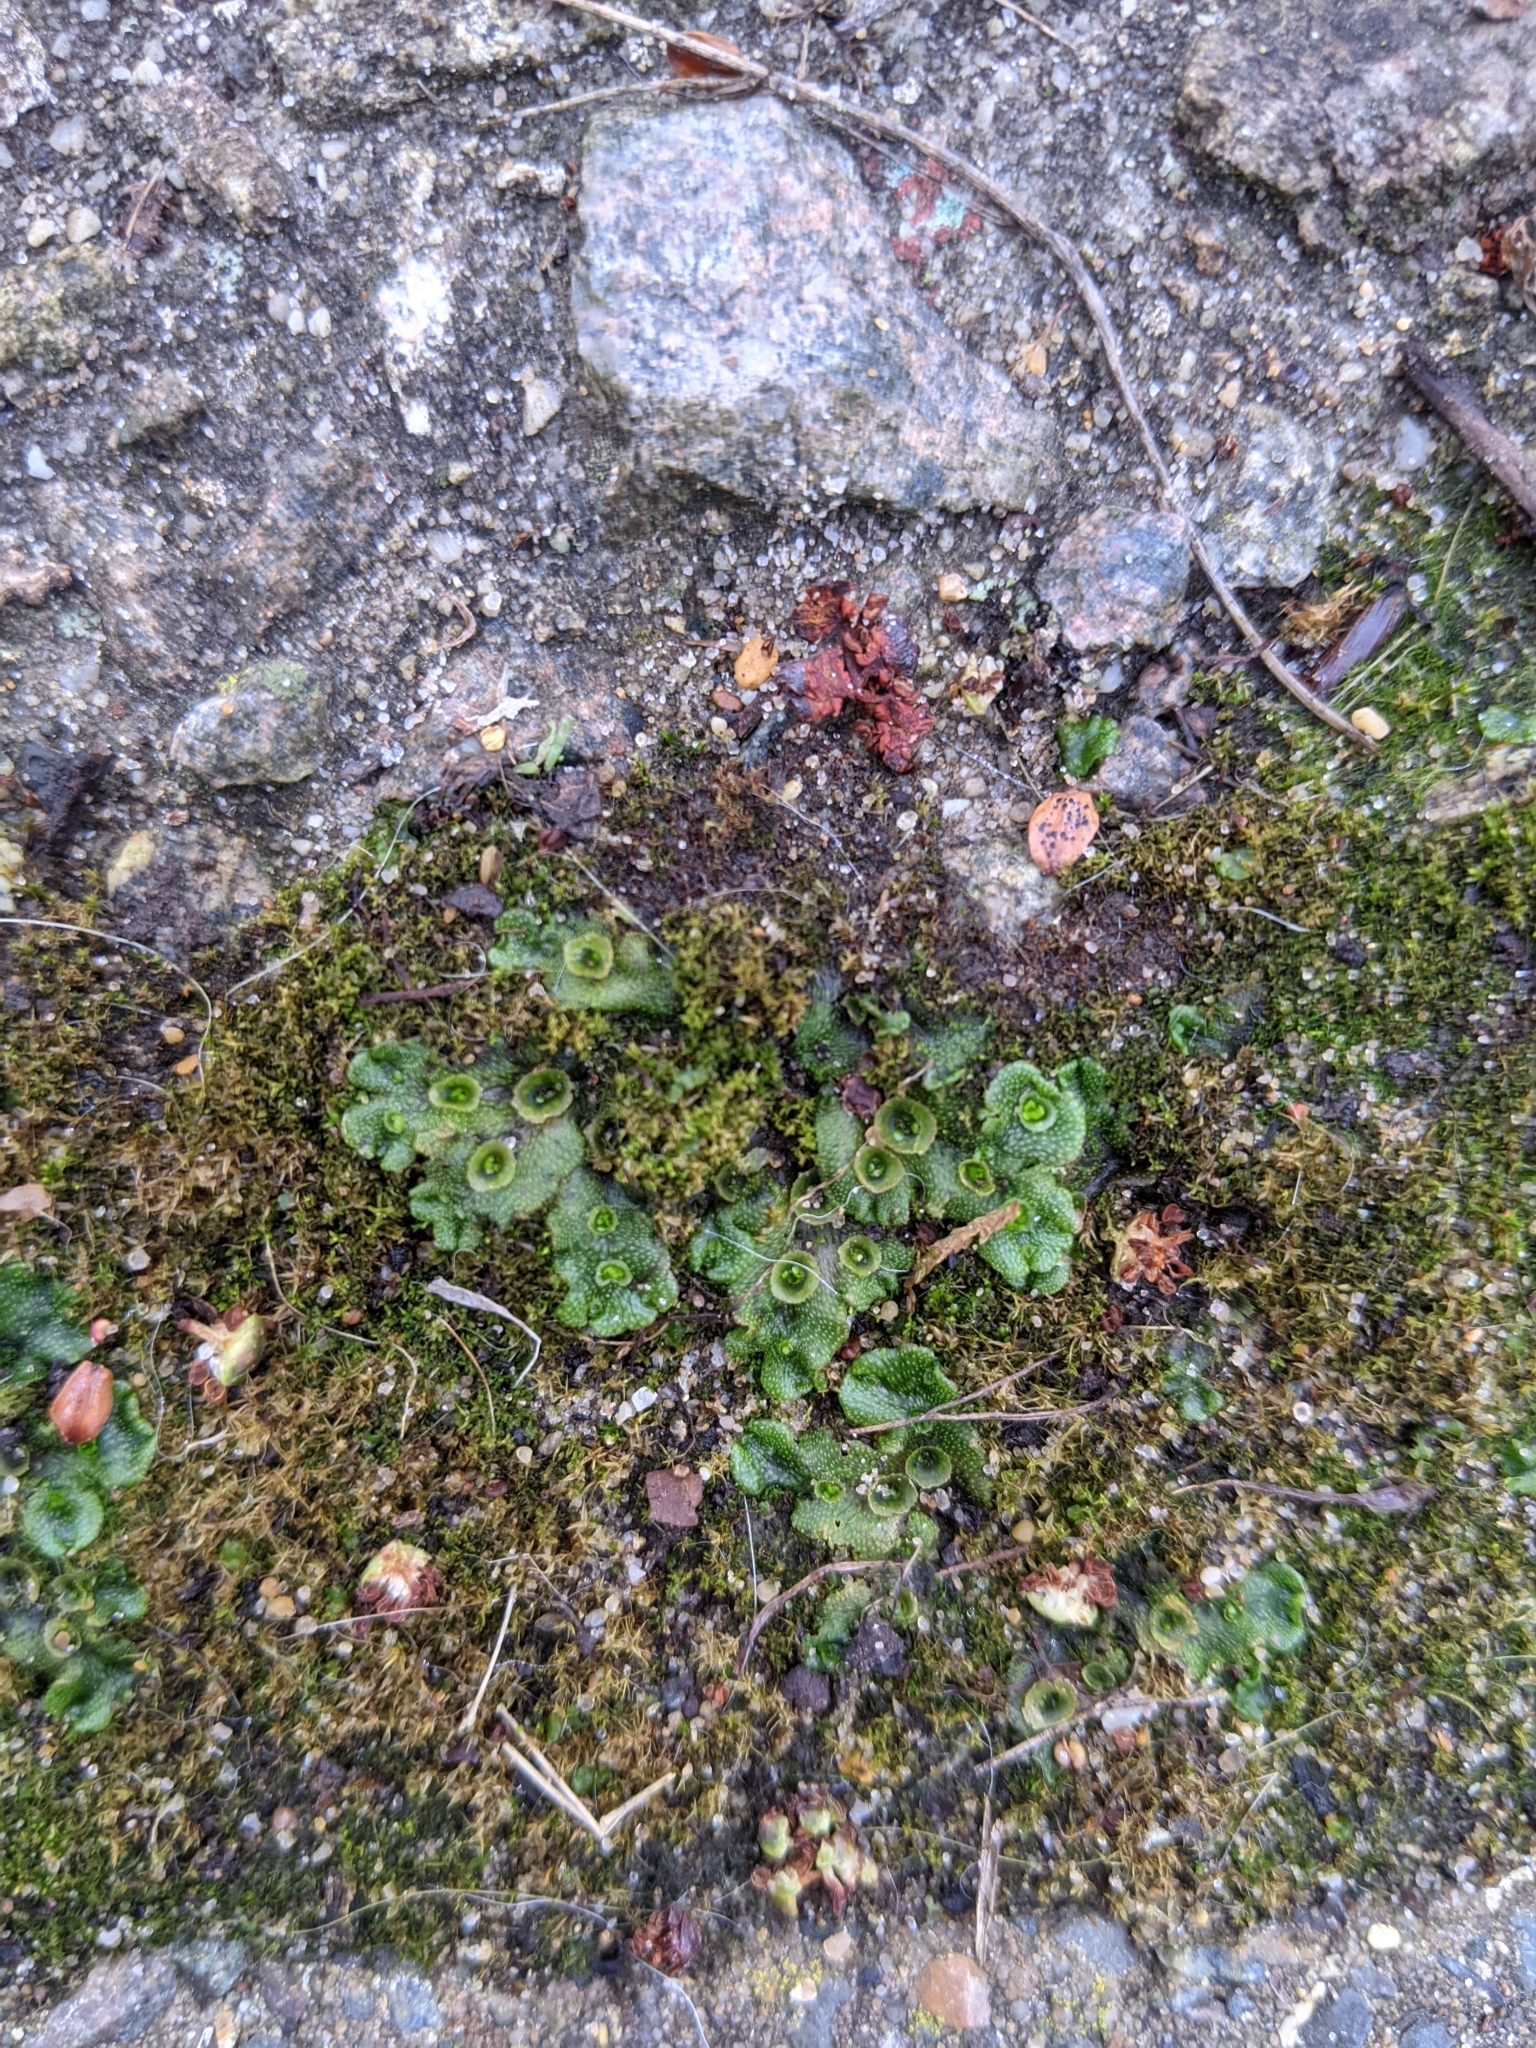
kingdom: Plantae
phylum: Marchantiophyta
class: Marchantiopsida
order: Marchantiales
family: Marchantiaceae
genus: Marchantia
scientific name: Marchantia polymorpha
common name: Common liverwort
